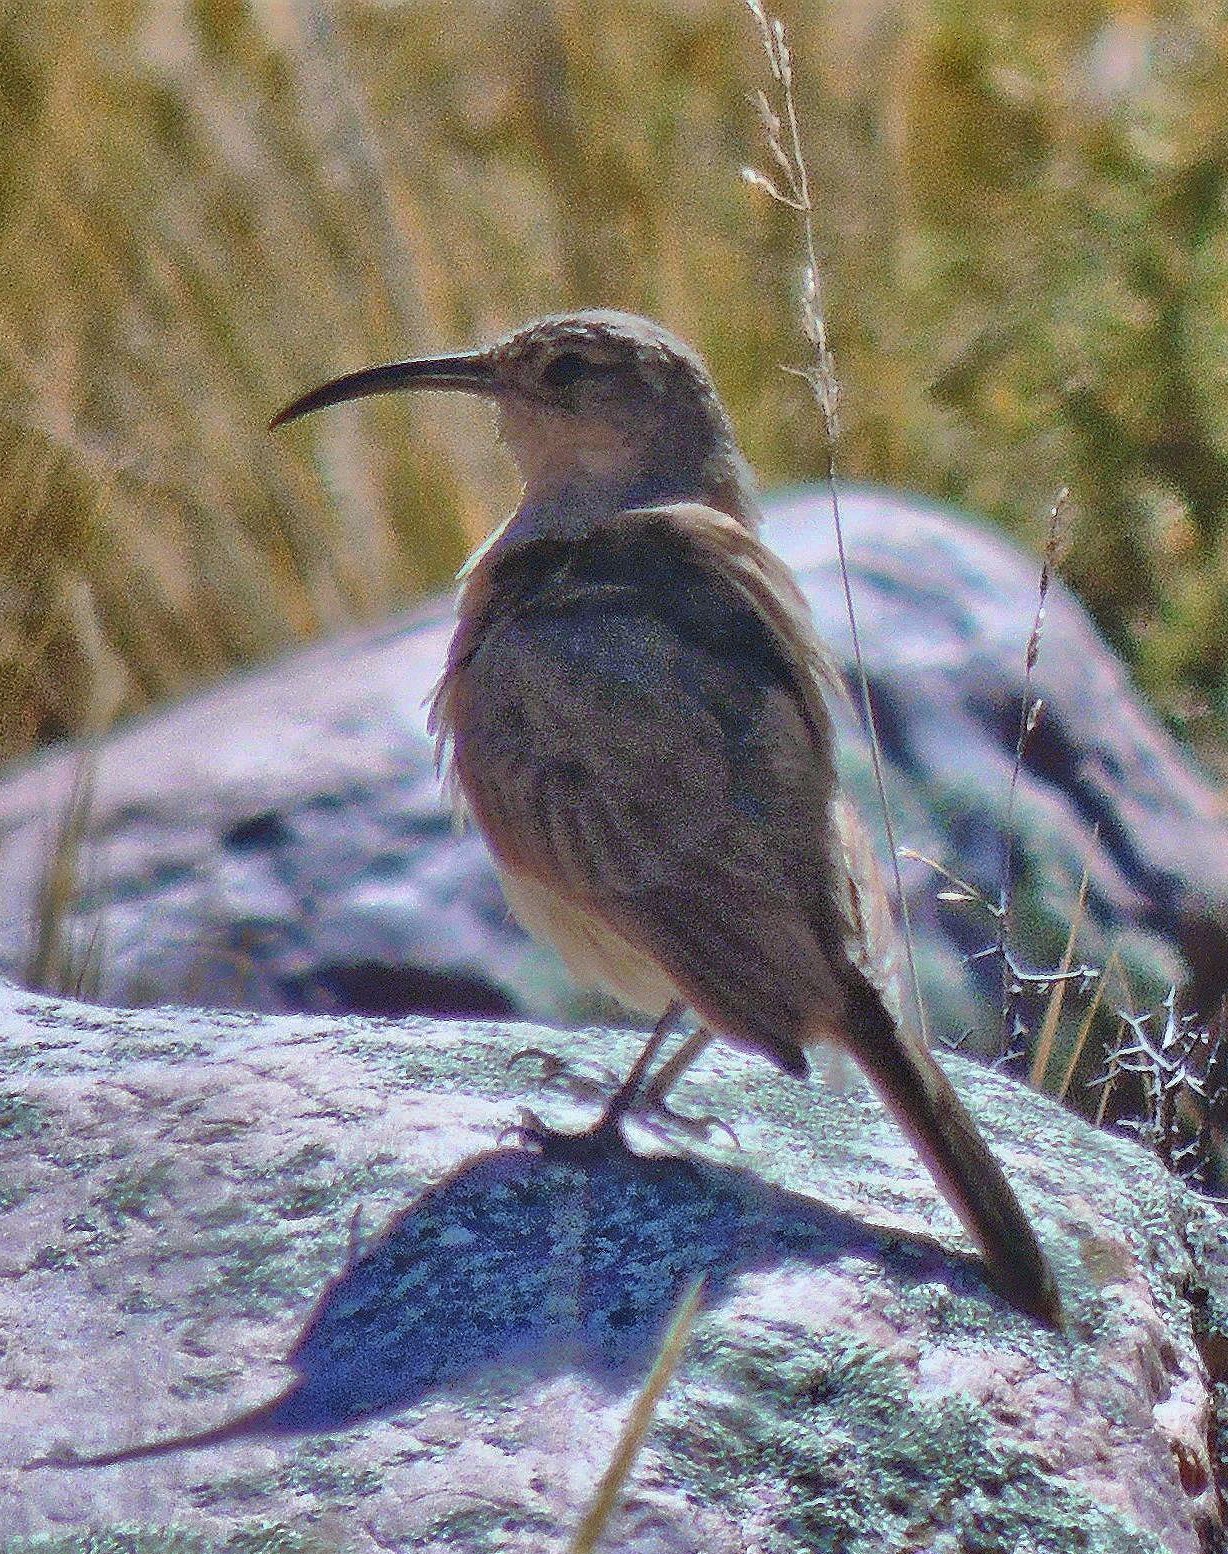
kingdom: Animalia
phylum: Chordata
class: Aves
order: Passeriformes
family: Furnariidae
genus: Upucerthia
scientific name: Upucerthia validirostris
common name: Buff-breasted earthcreeper
